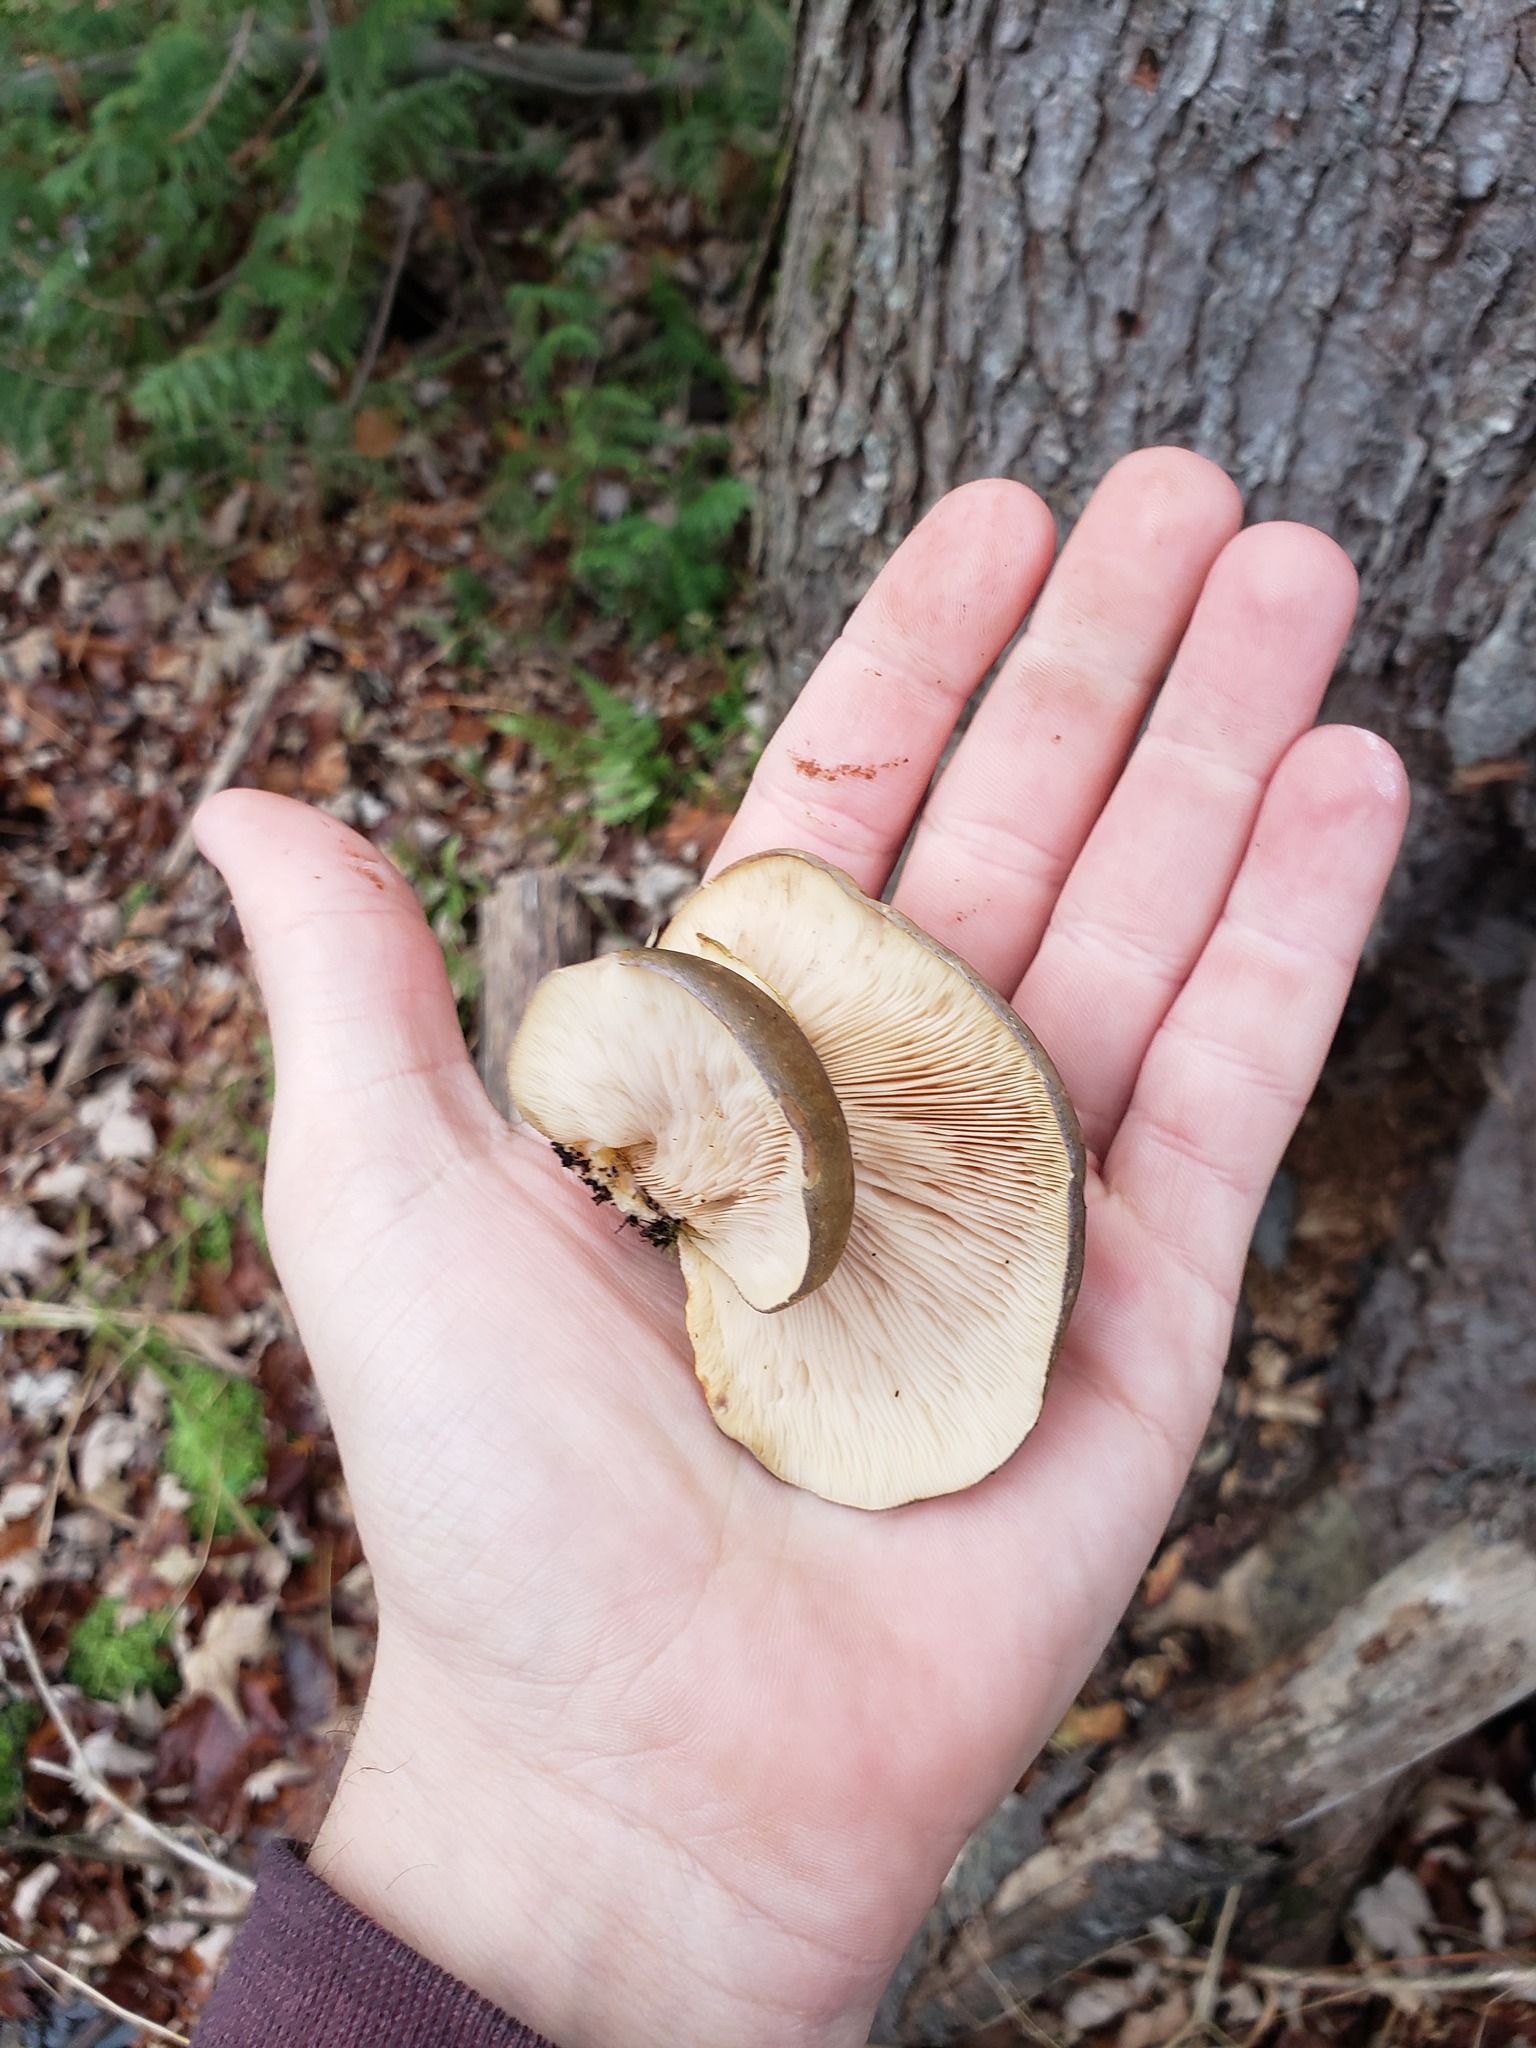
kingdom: Fungi
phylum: Basidiomycota
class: Agaricomycetes
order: Agaricales
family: Sarcomyxaceae
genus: Sarcomyxa
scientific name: Sarcomyxa serotina
